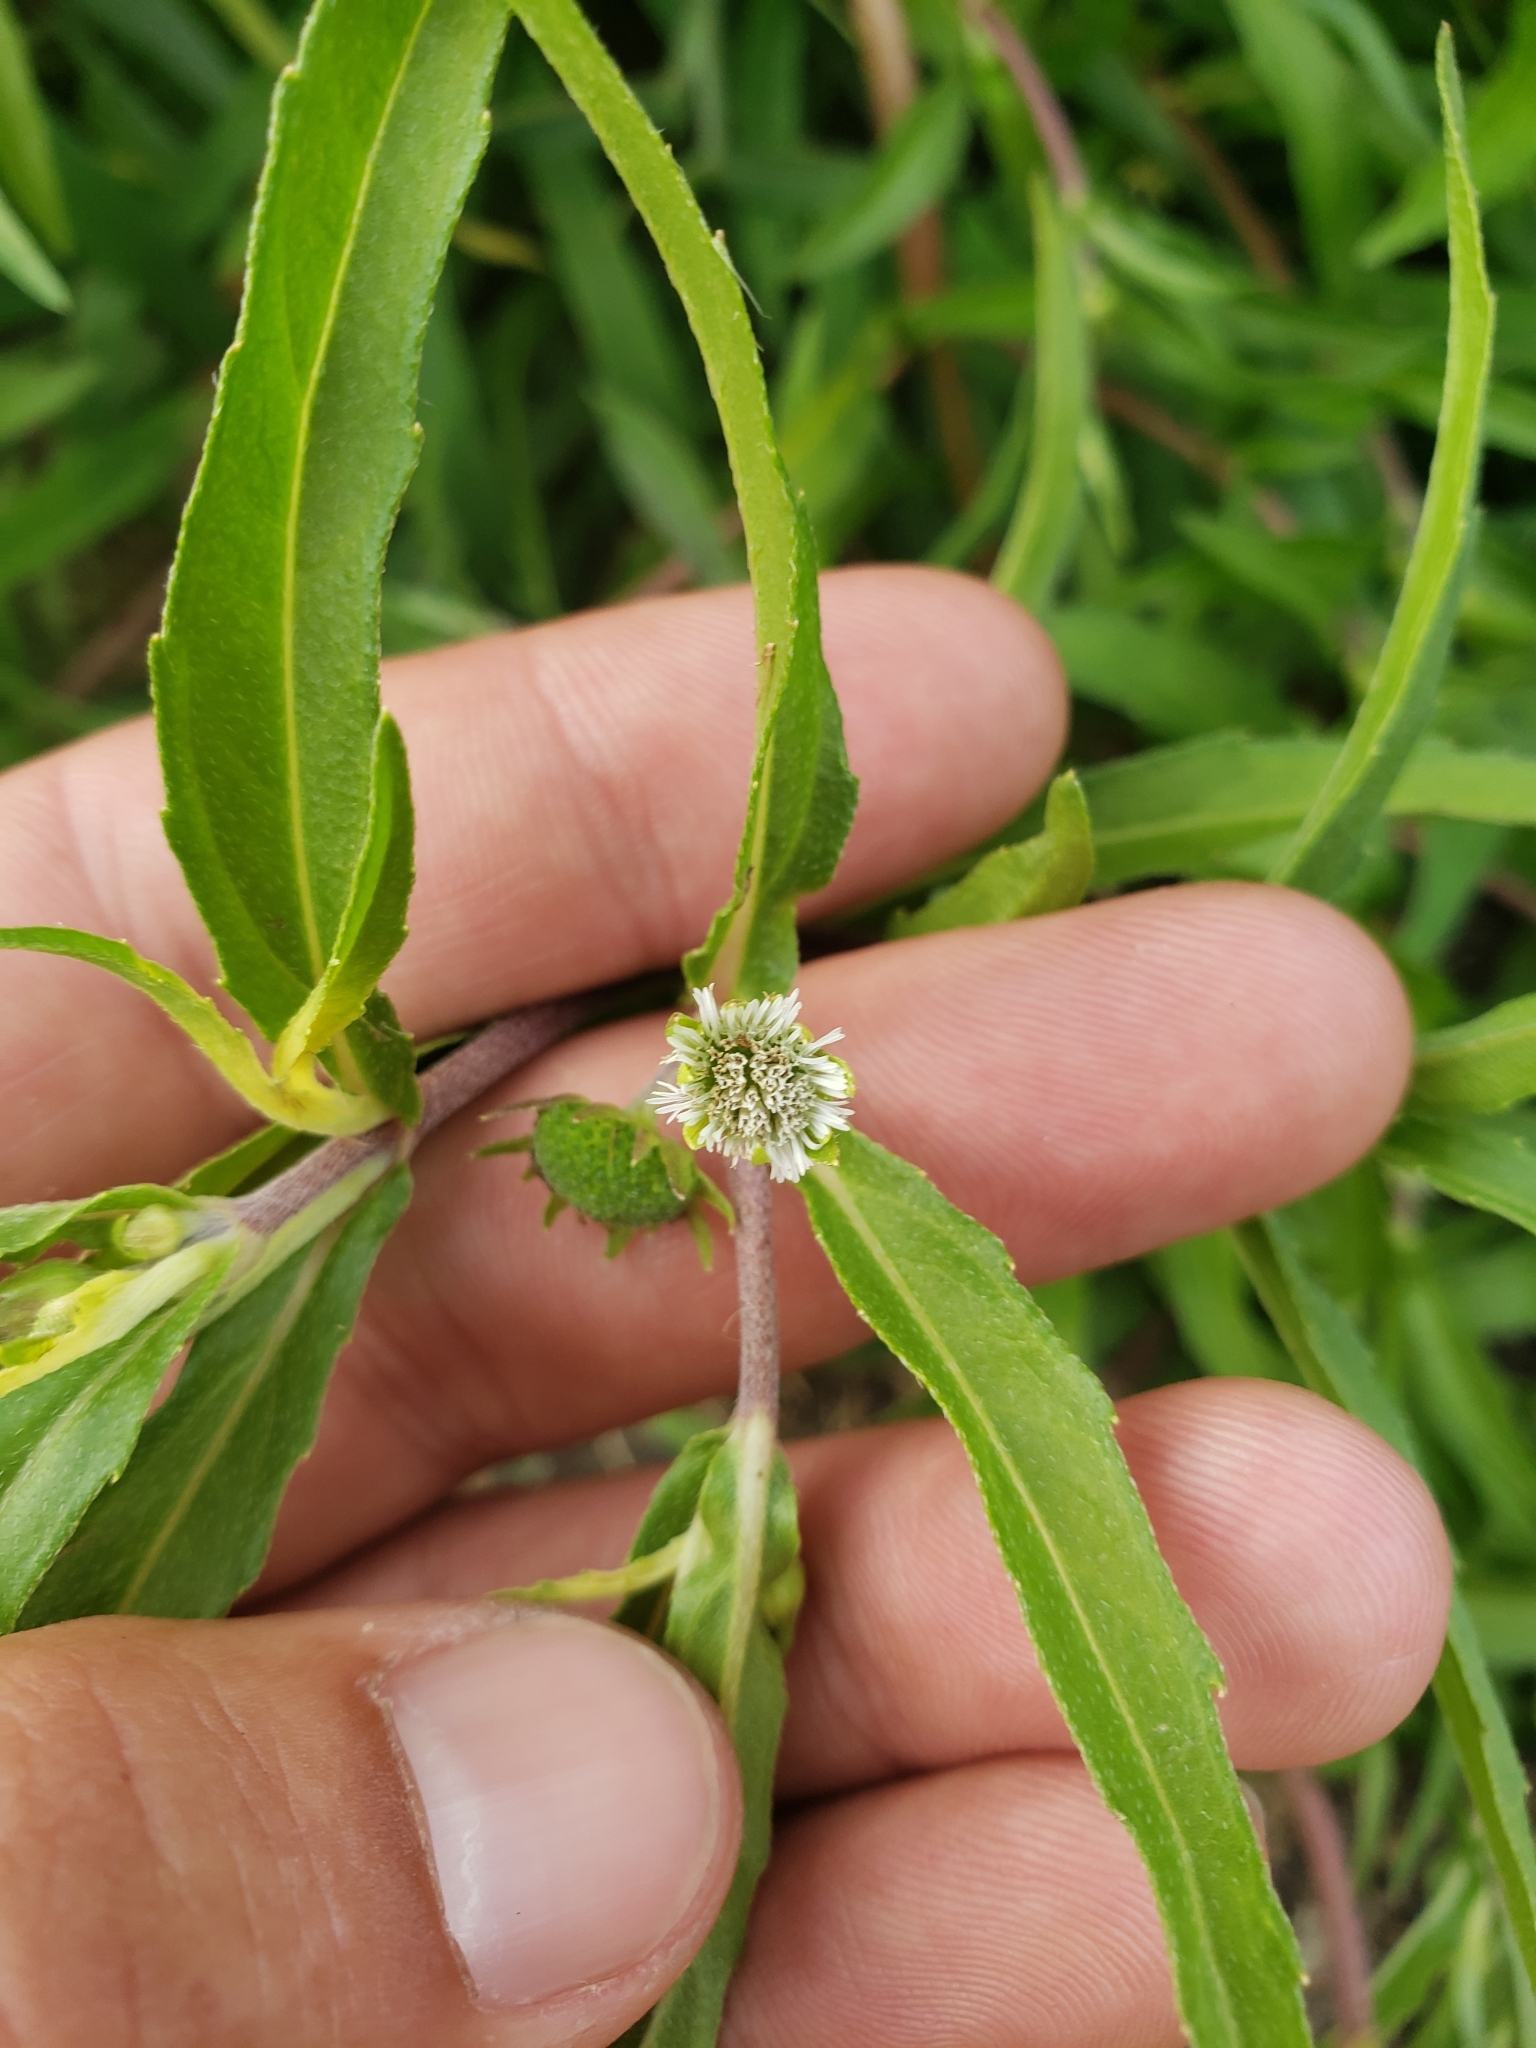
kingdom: Plantae
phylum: Tracheophyta
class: Magnoliopsida
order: Asterales
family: Asteraceae
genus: Eclipta
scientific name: Eclipta prostrata
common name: False daisy
